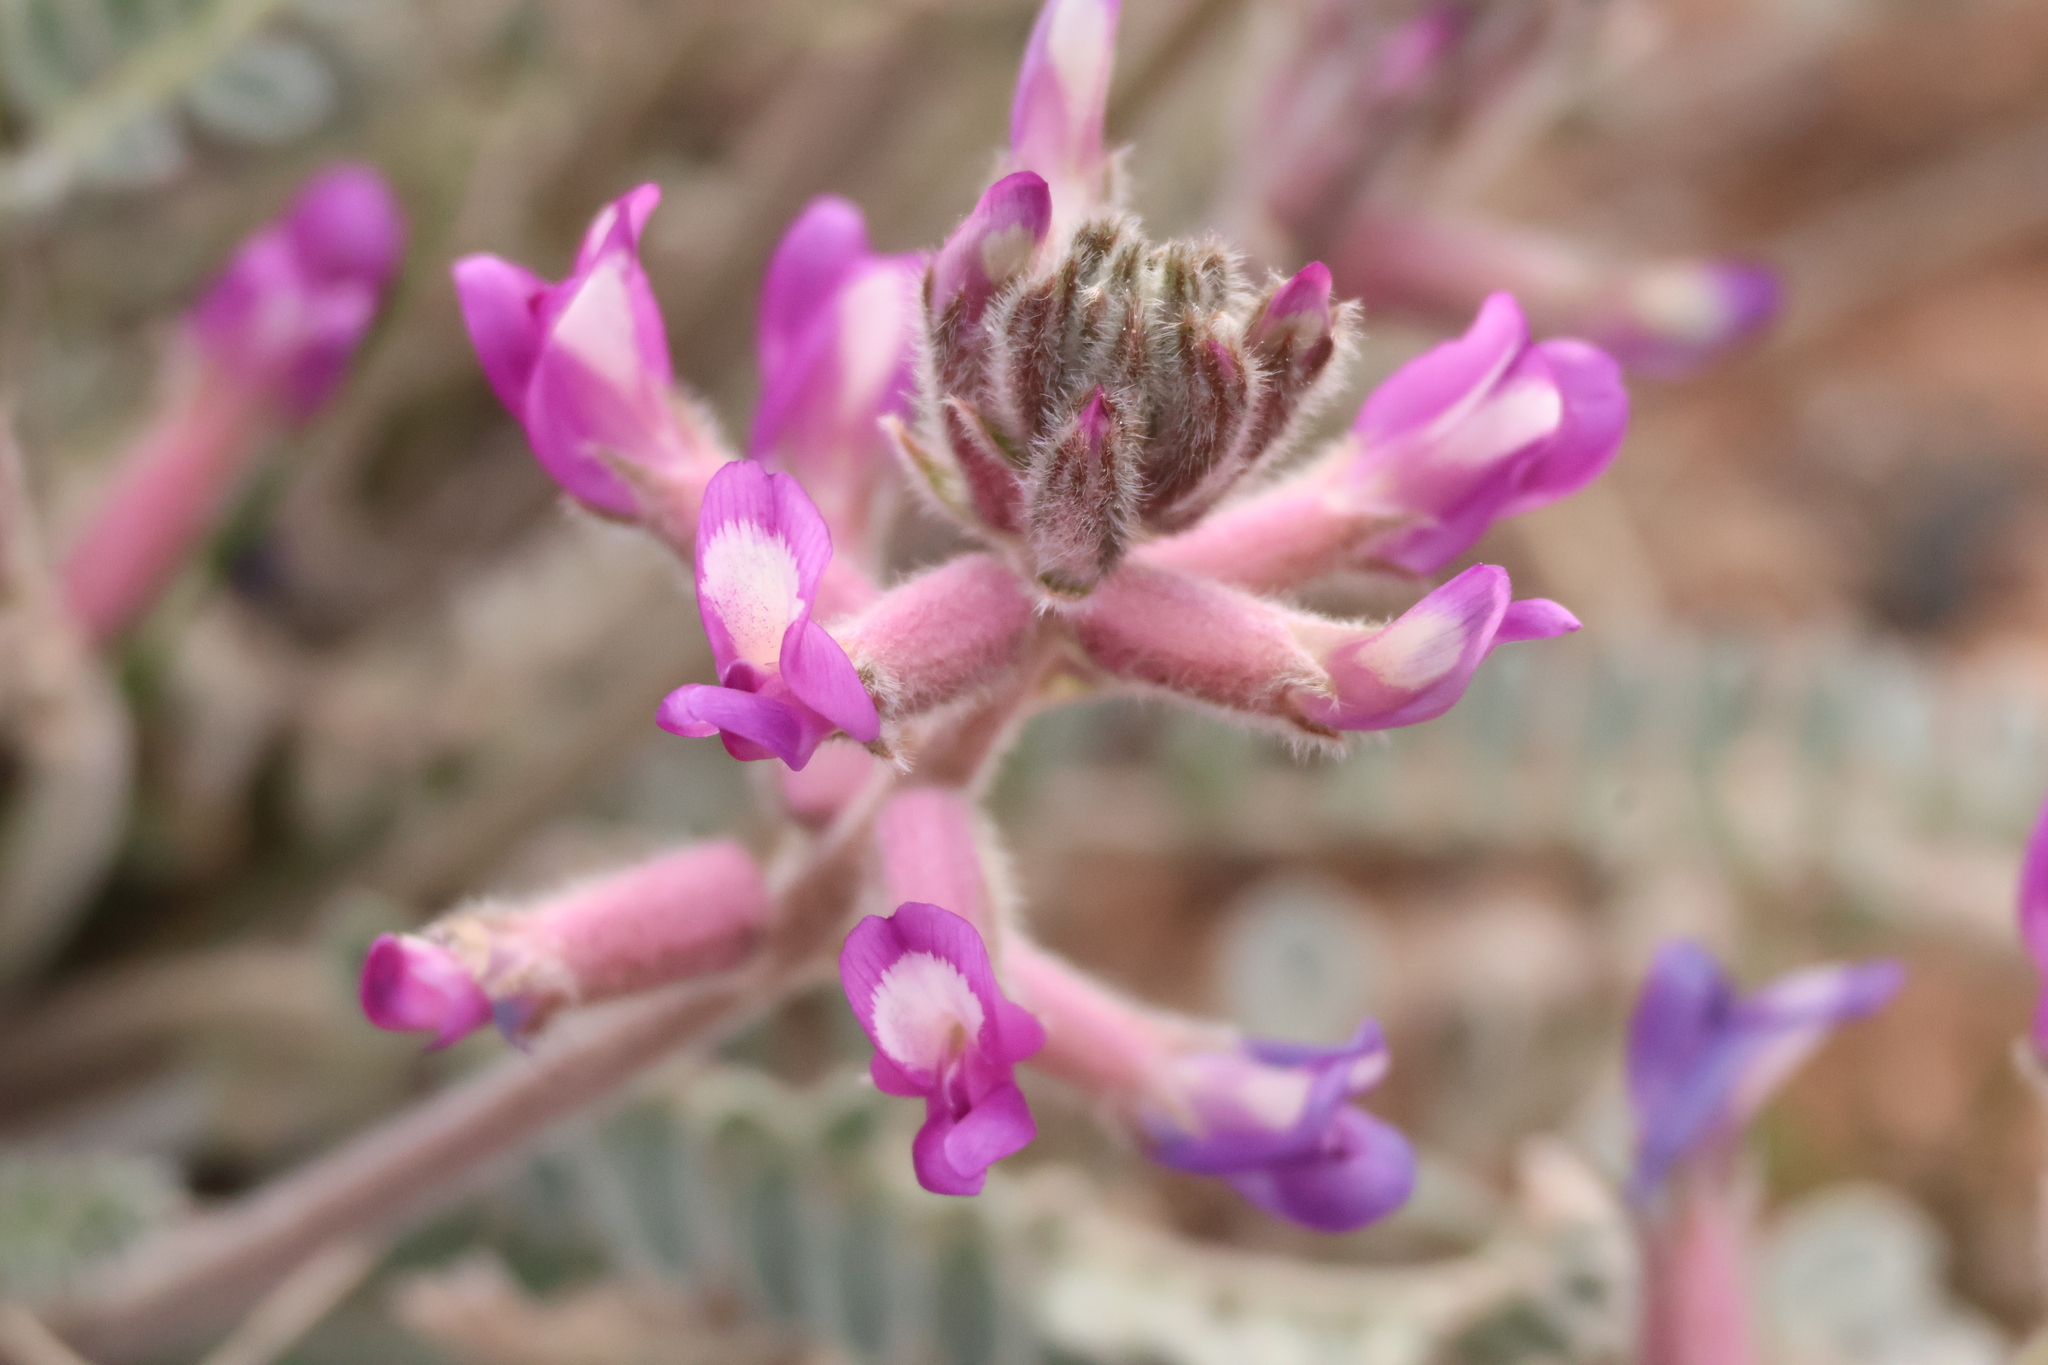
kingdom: Plantae
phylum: Tracheophyta
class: Magnoliopsida
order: Fabales
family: Fabaceae
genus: Astragalus
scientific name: Astragalus mollissimus
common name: Woolly locoweed
